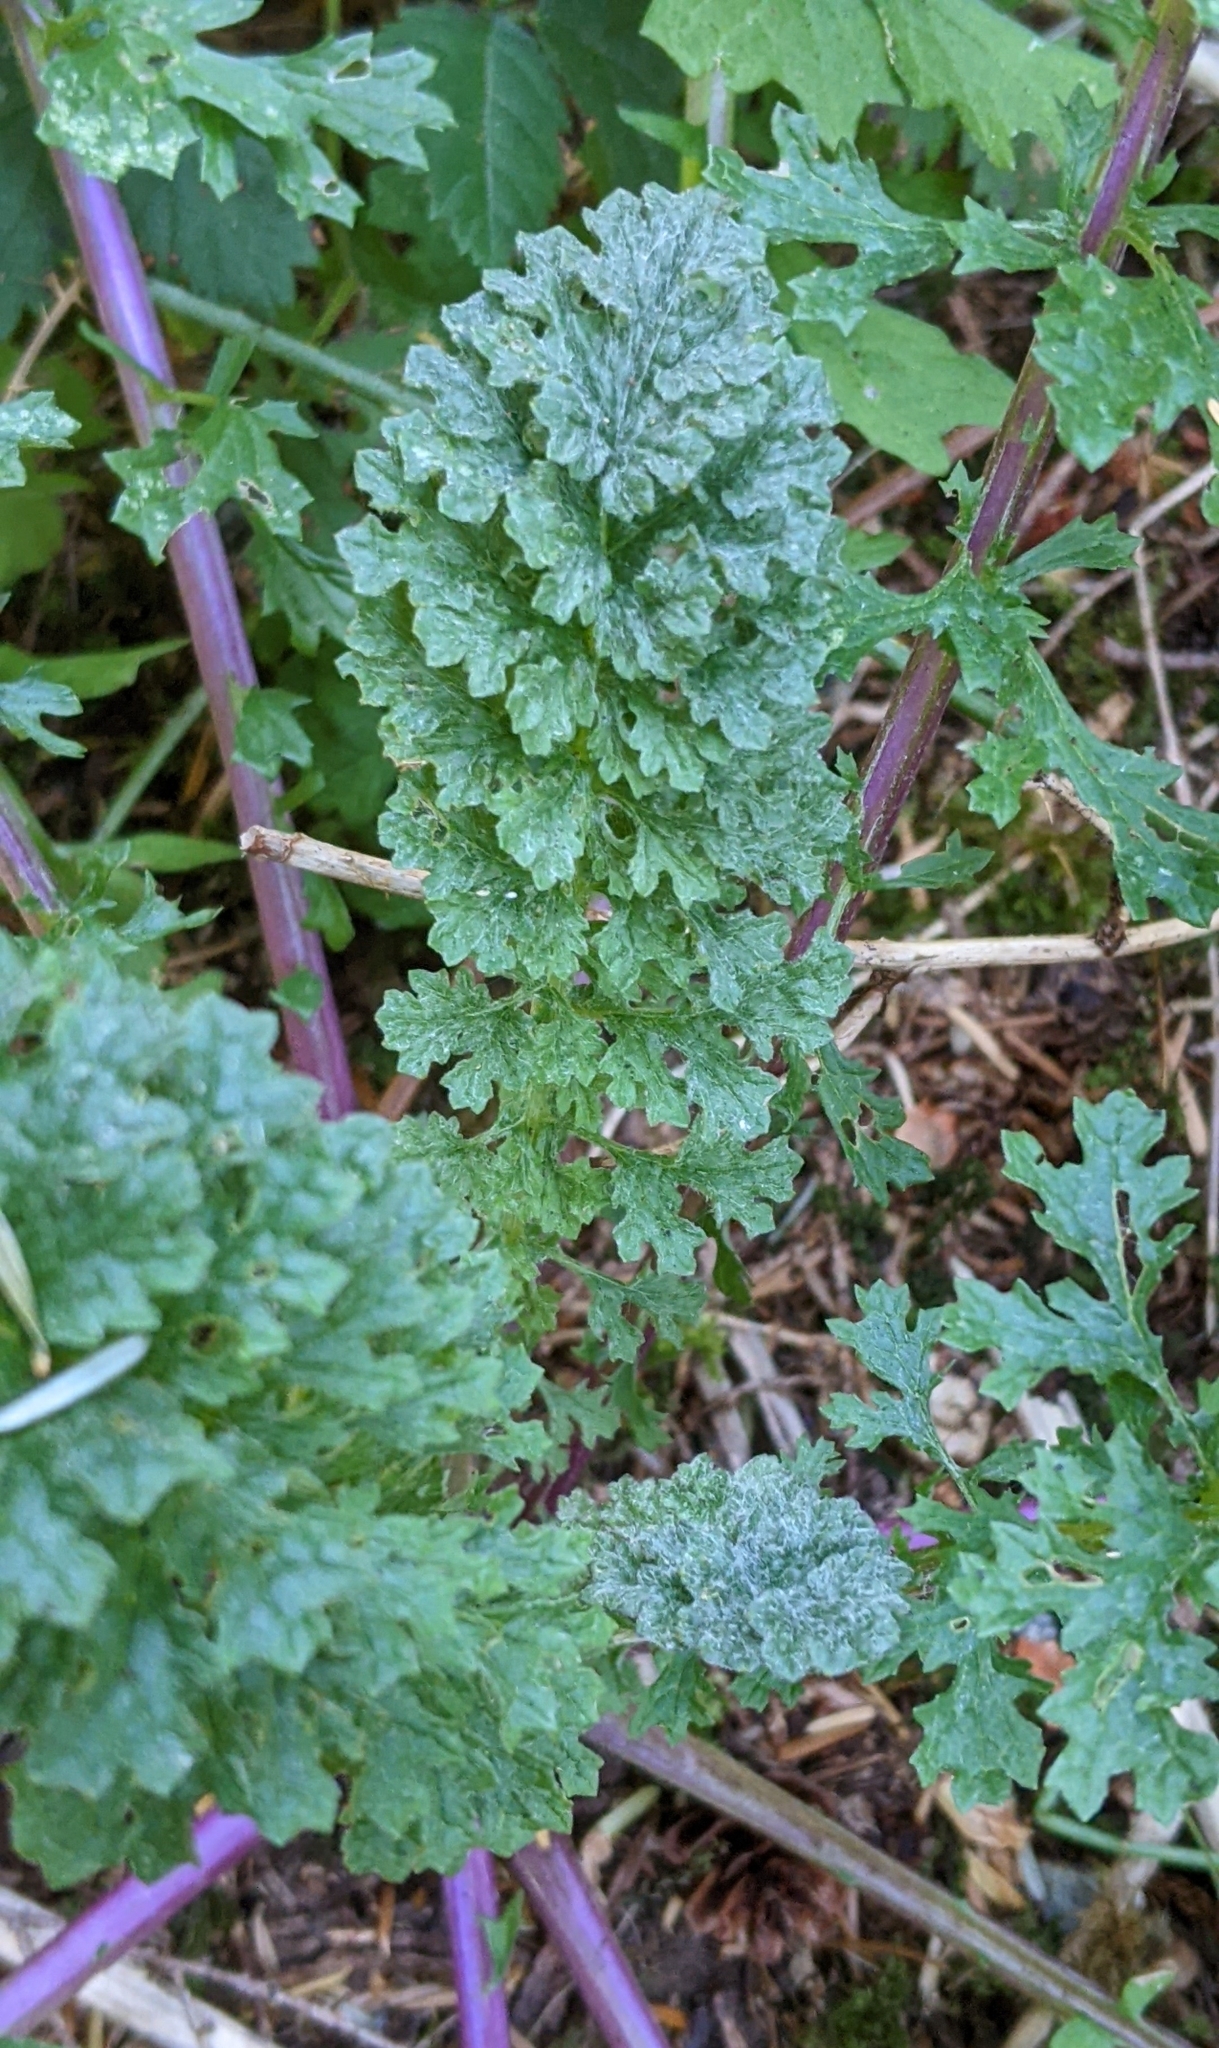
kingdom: Plantae
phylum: Tracheophyta
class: Magnoliopsida
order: Asterales
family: Asteraceae
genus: Jacobaea
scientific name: Jacobaea vulgaris
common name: Stinking willie
